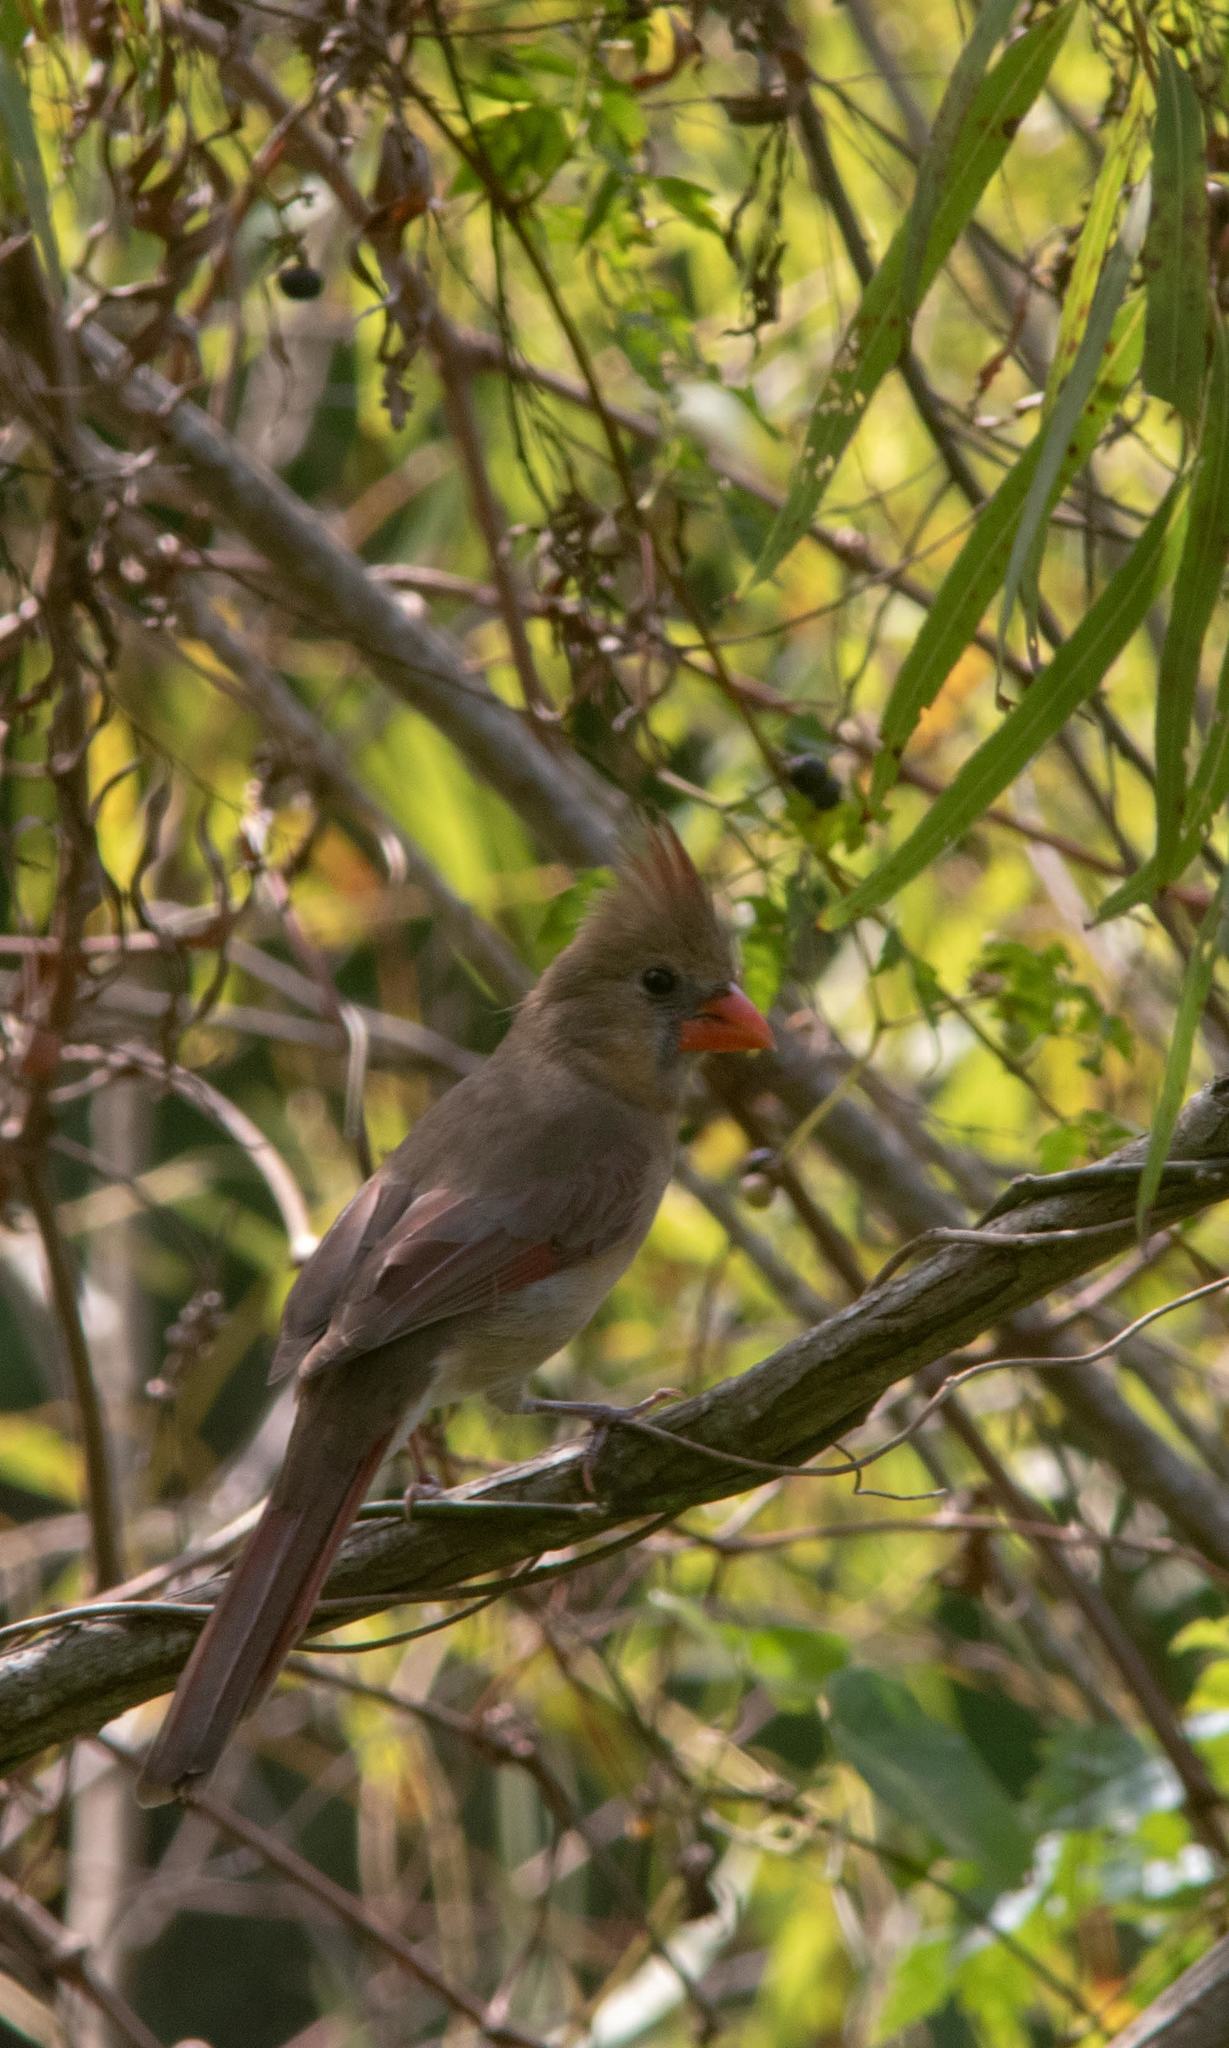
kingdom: Animalia
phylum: Chordata
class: Aves
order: Passeriformes
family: Cardinalidae
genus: Cardinalis
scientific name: Cardinalis cardinalis
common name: Northern cardinal
